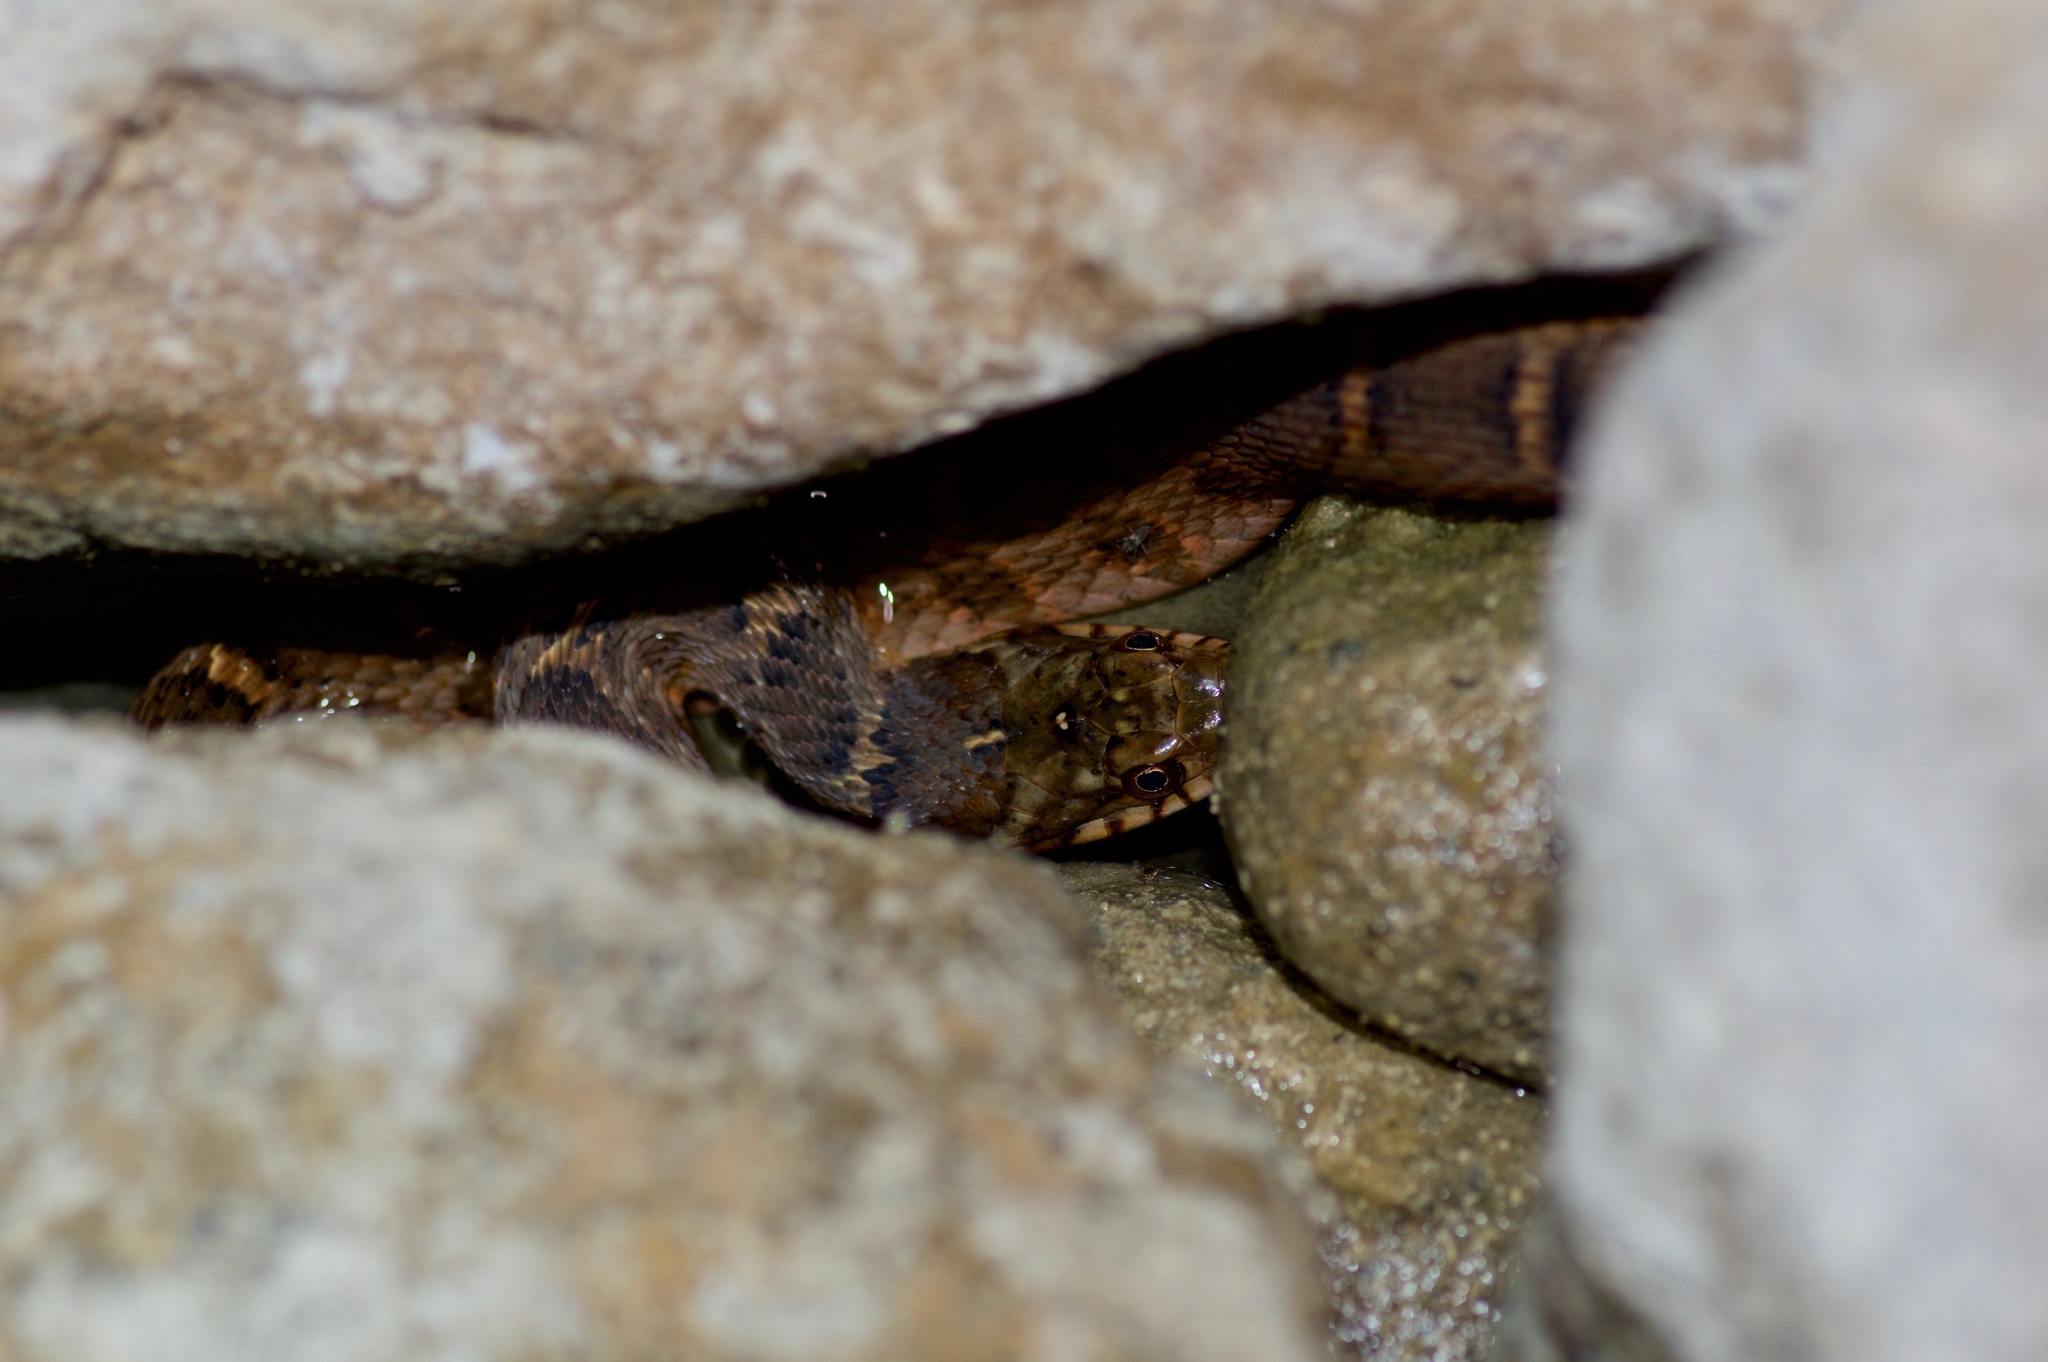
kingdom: Animalia
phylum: Chordata
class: Squamata
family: Colubridae
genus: Nerodia
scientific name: Nerodia erythrogaster
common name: Plainbelly water snake
